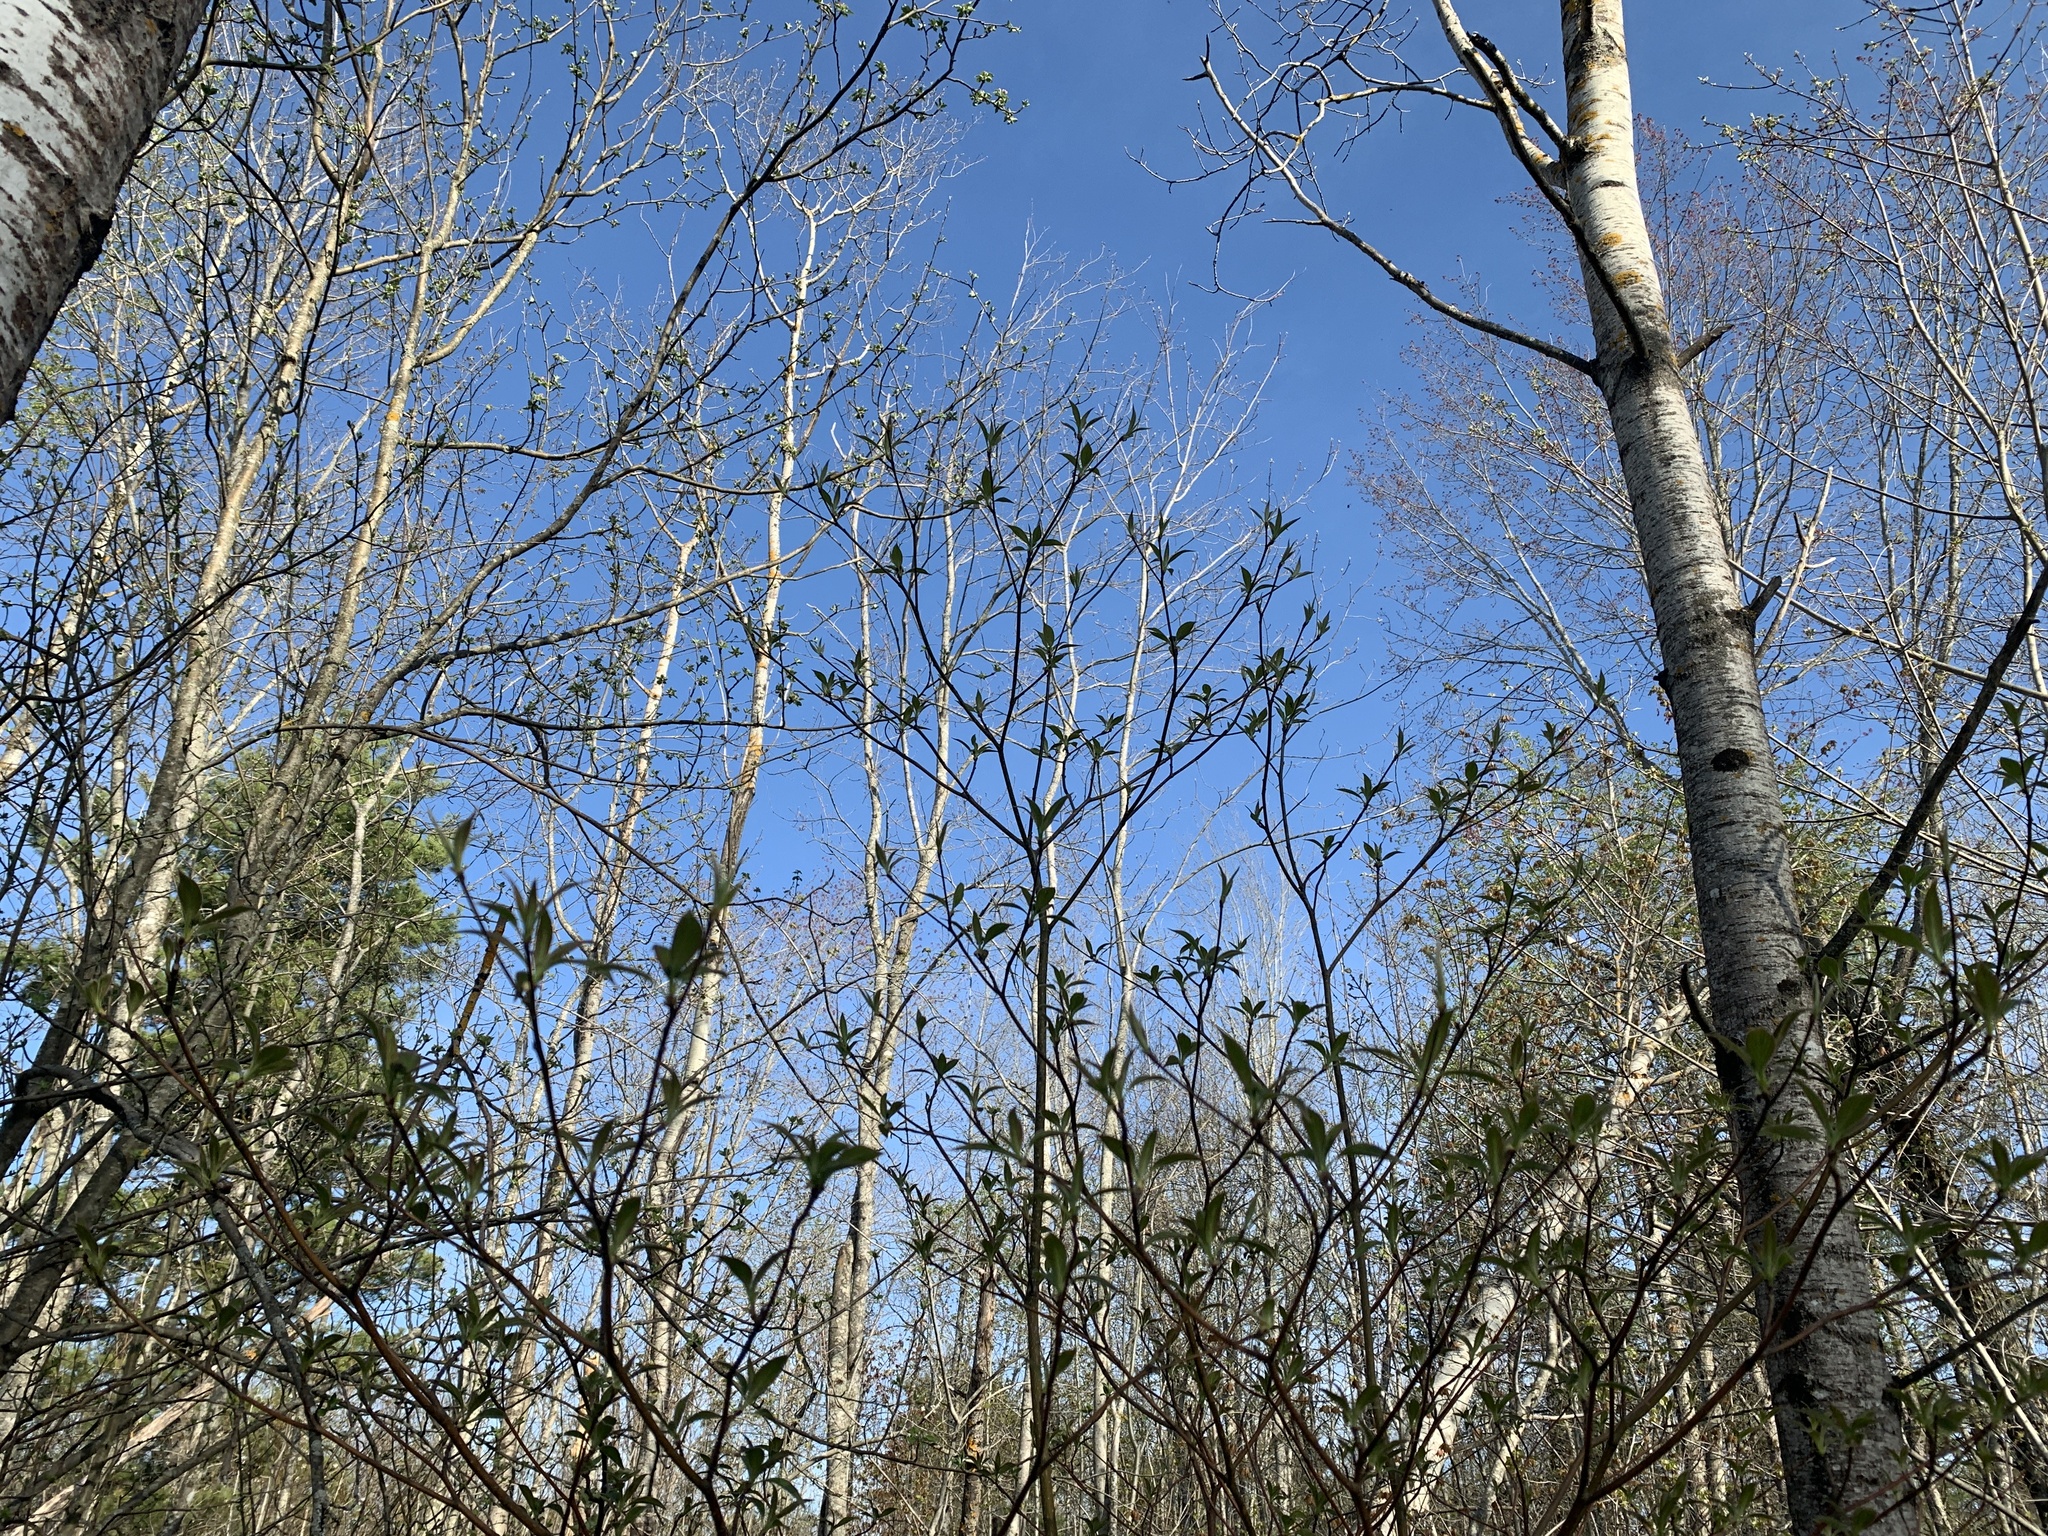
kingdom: Plantae
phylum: Tracheophyta
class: Magnoliopsida
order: Cornales
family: Cornaceae
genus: Cornus
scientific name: Cornus alternifolia
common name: Pagoda dogwood
